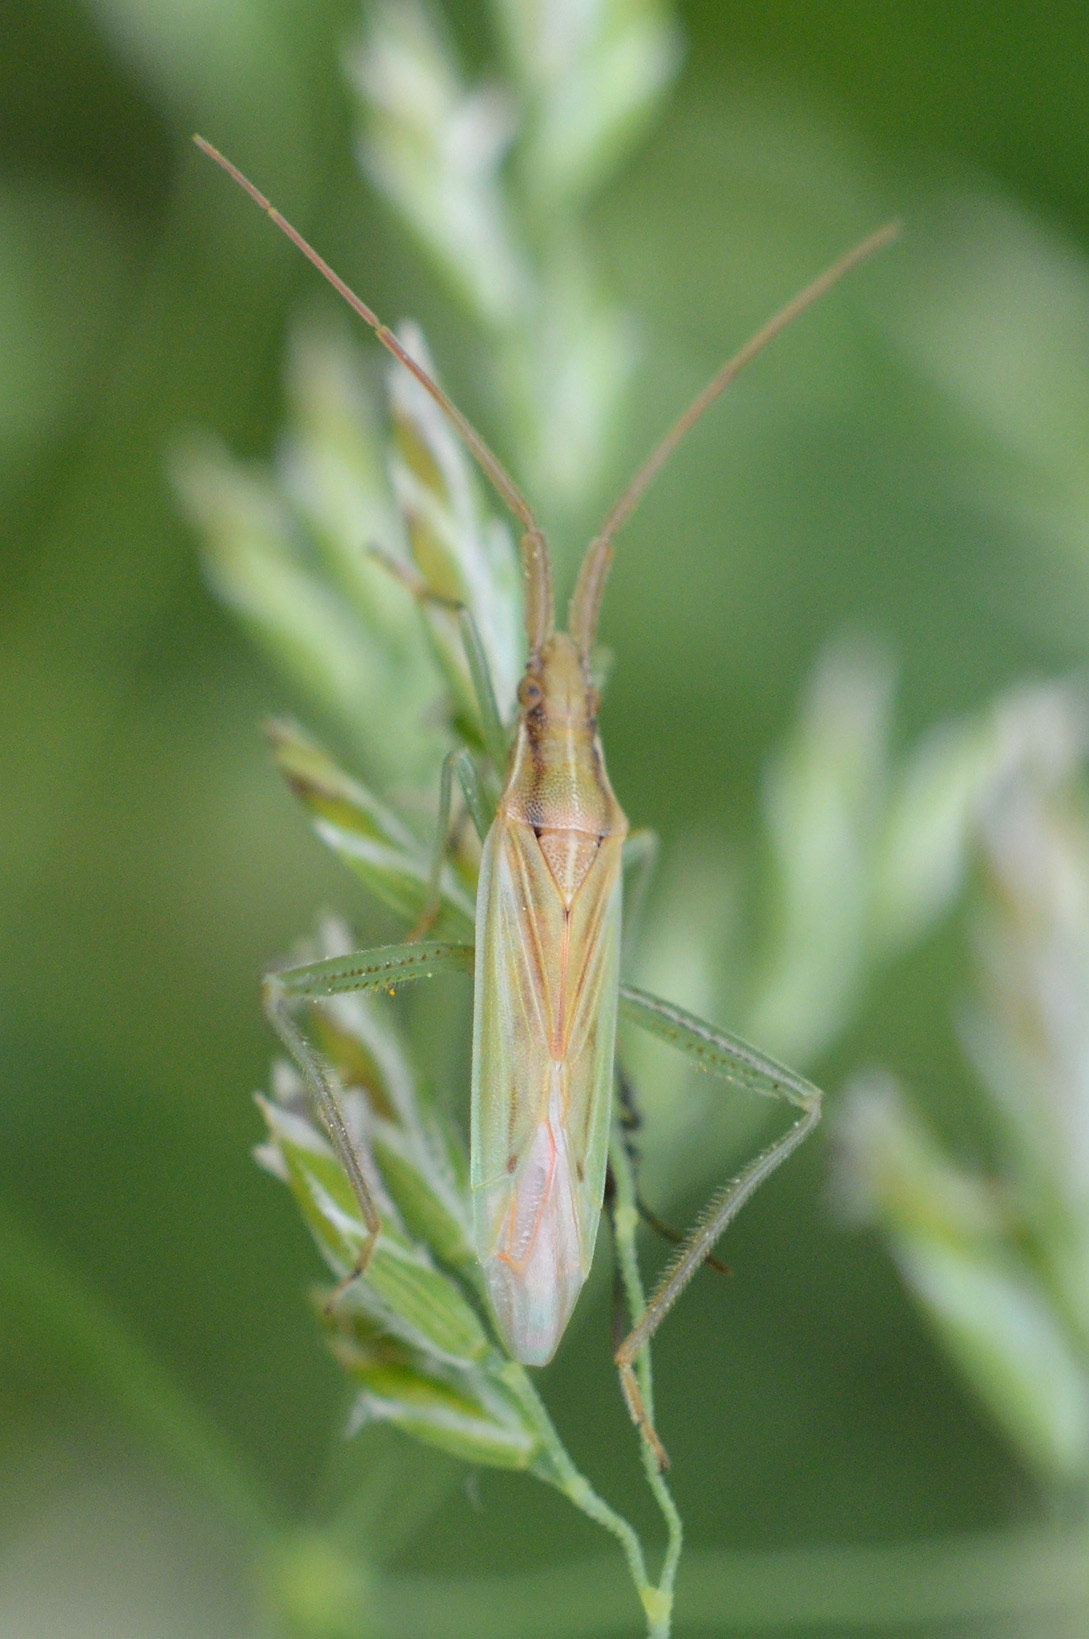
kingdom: Animalia
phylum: Arthropoda
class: Insecta
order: Hemiptera
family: Miridae
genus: Stenodema
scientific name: Stenodema laevigata
